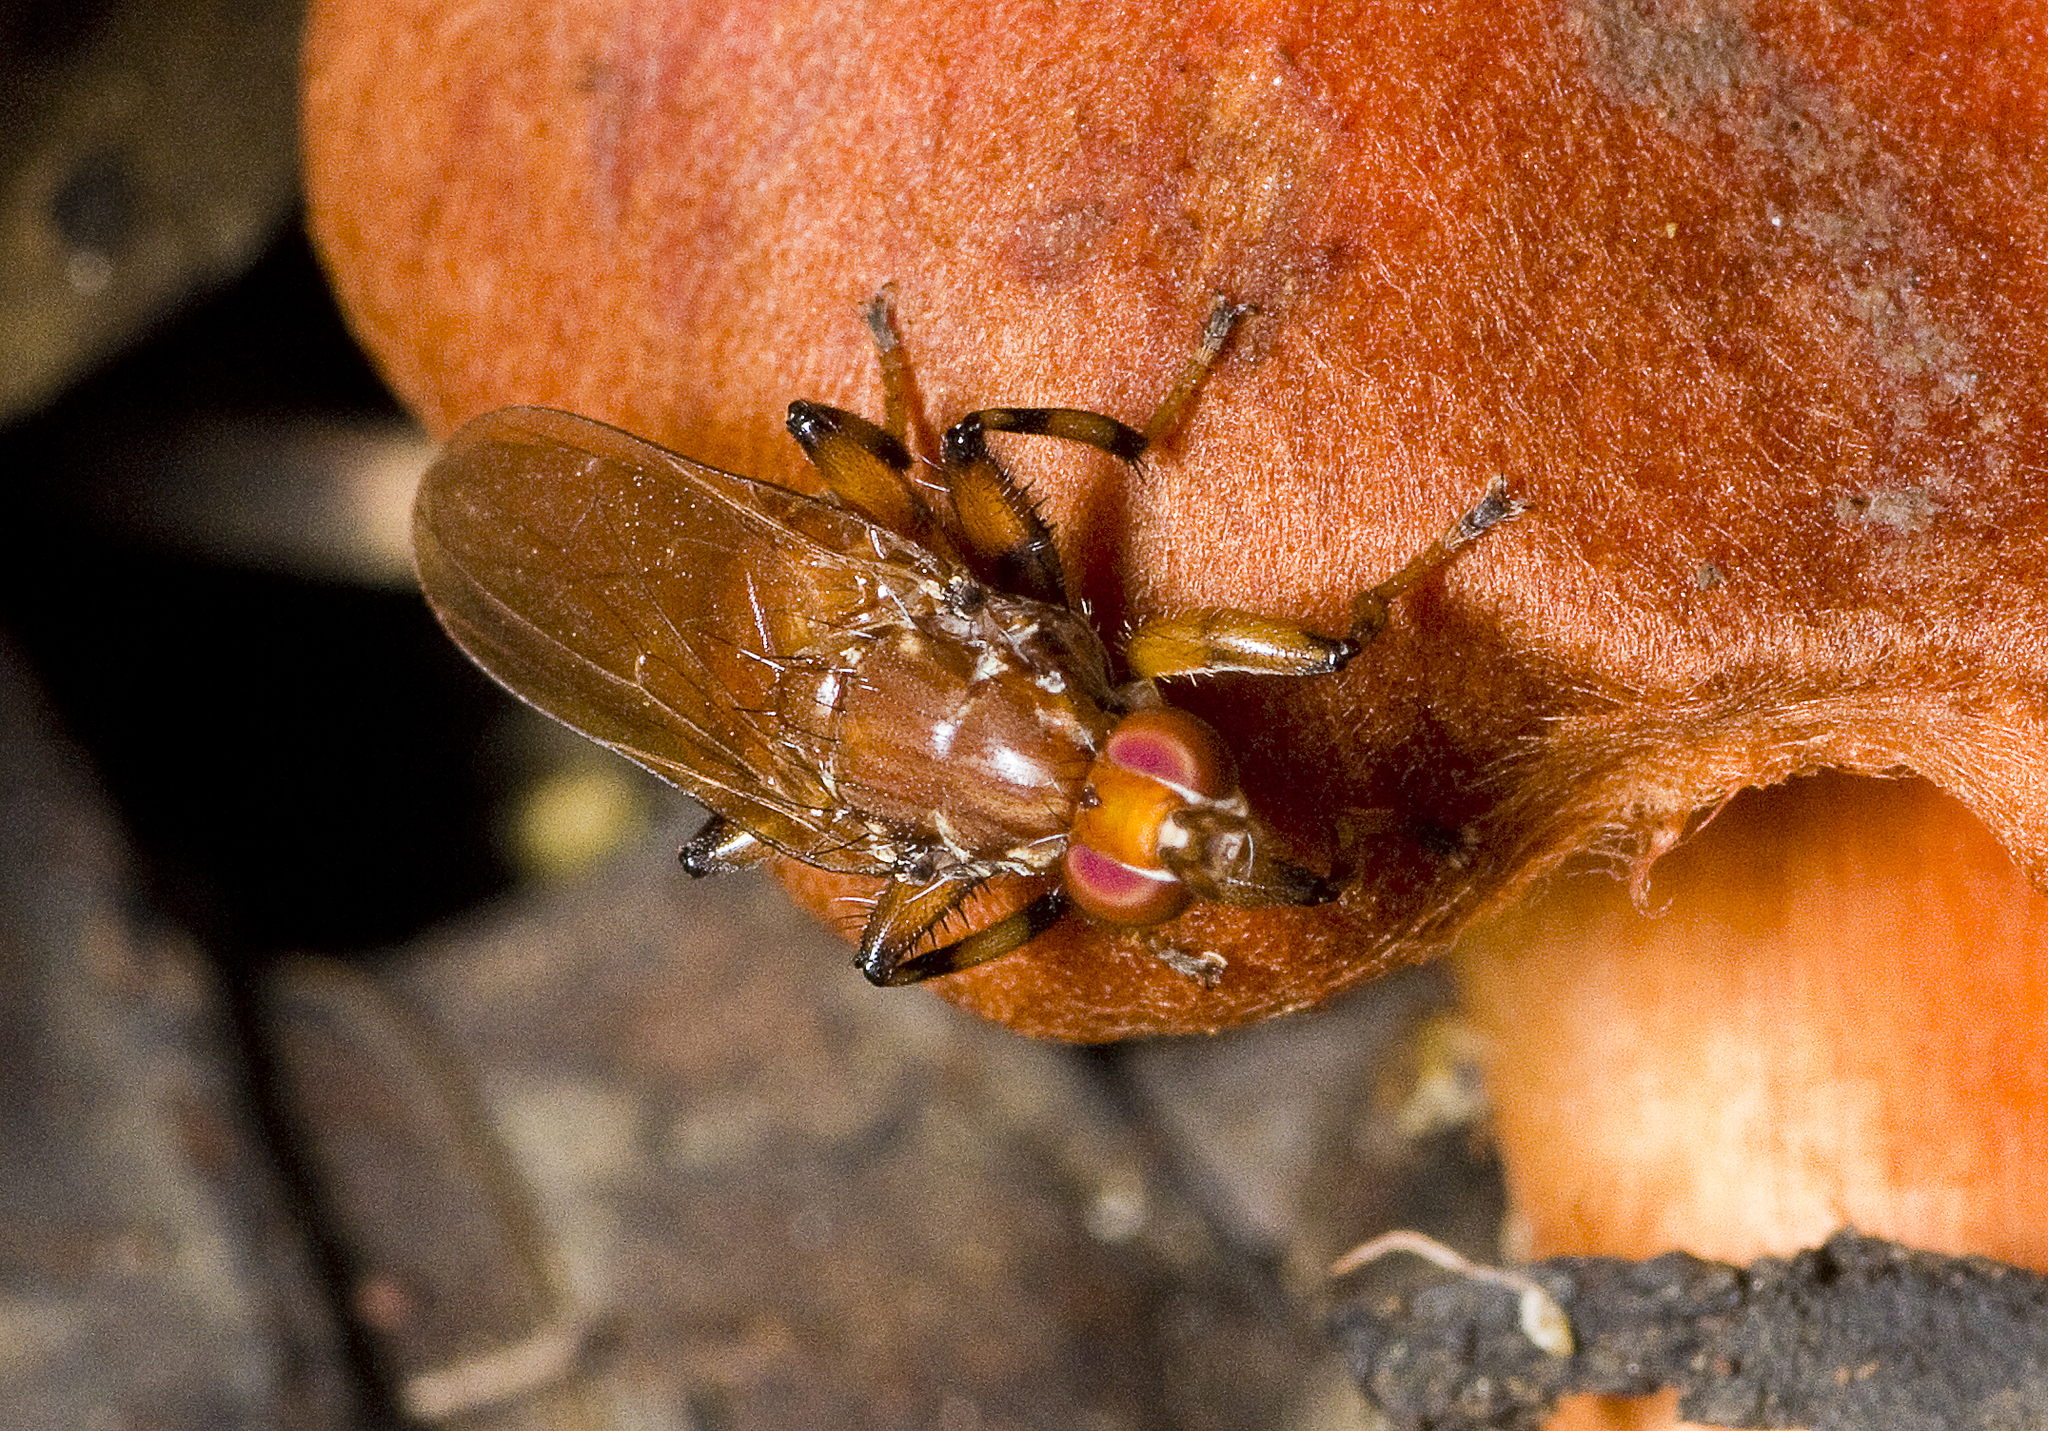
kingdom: Animalia
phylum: Arthropoda
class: Insecta
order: Diptera
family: Heleomyzidae
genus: Tapeigaster
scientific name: Tapeigaster luteipennis
